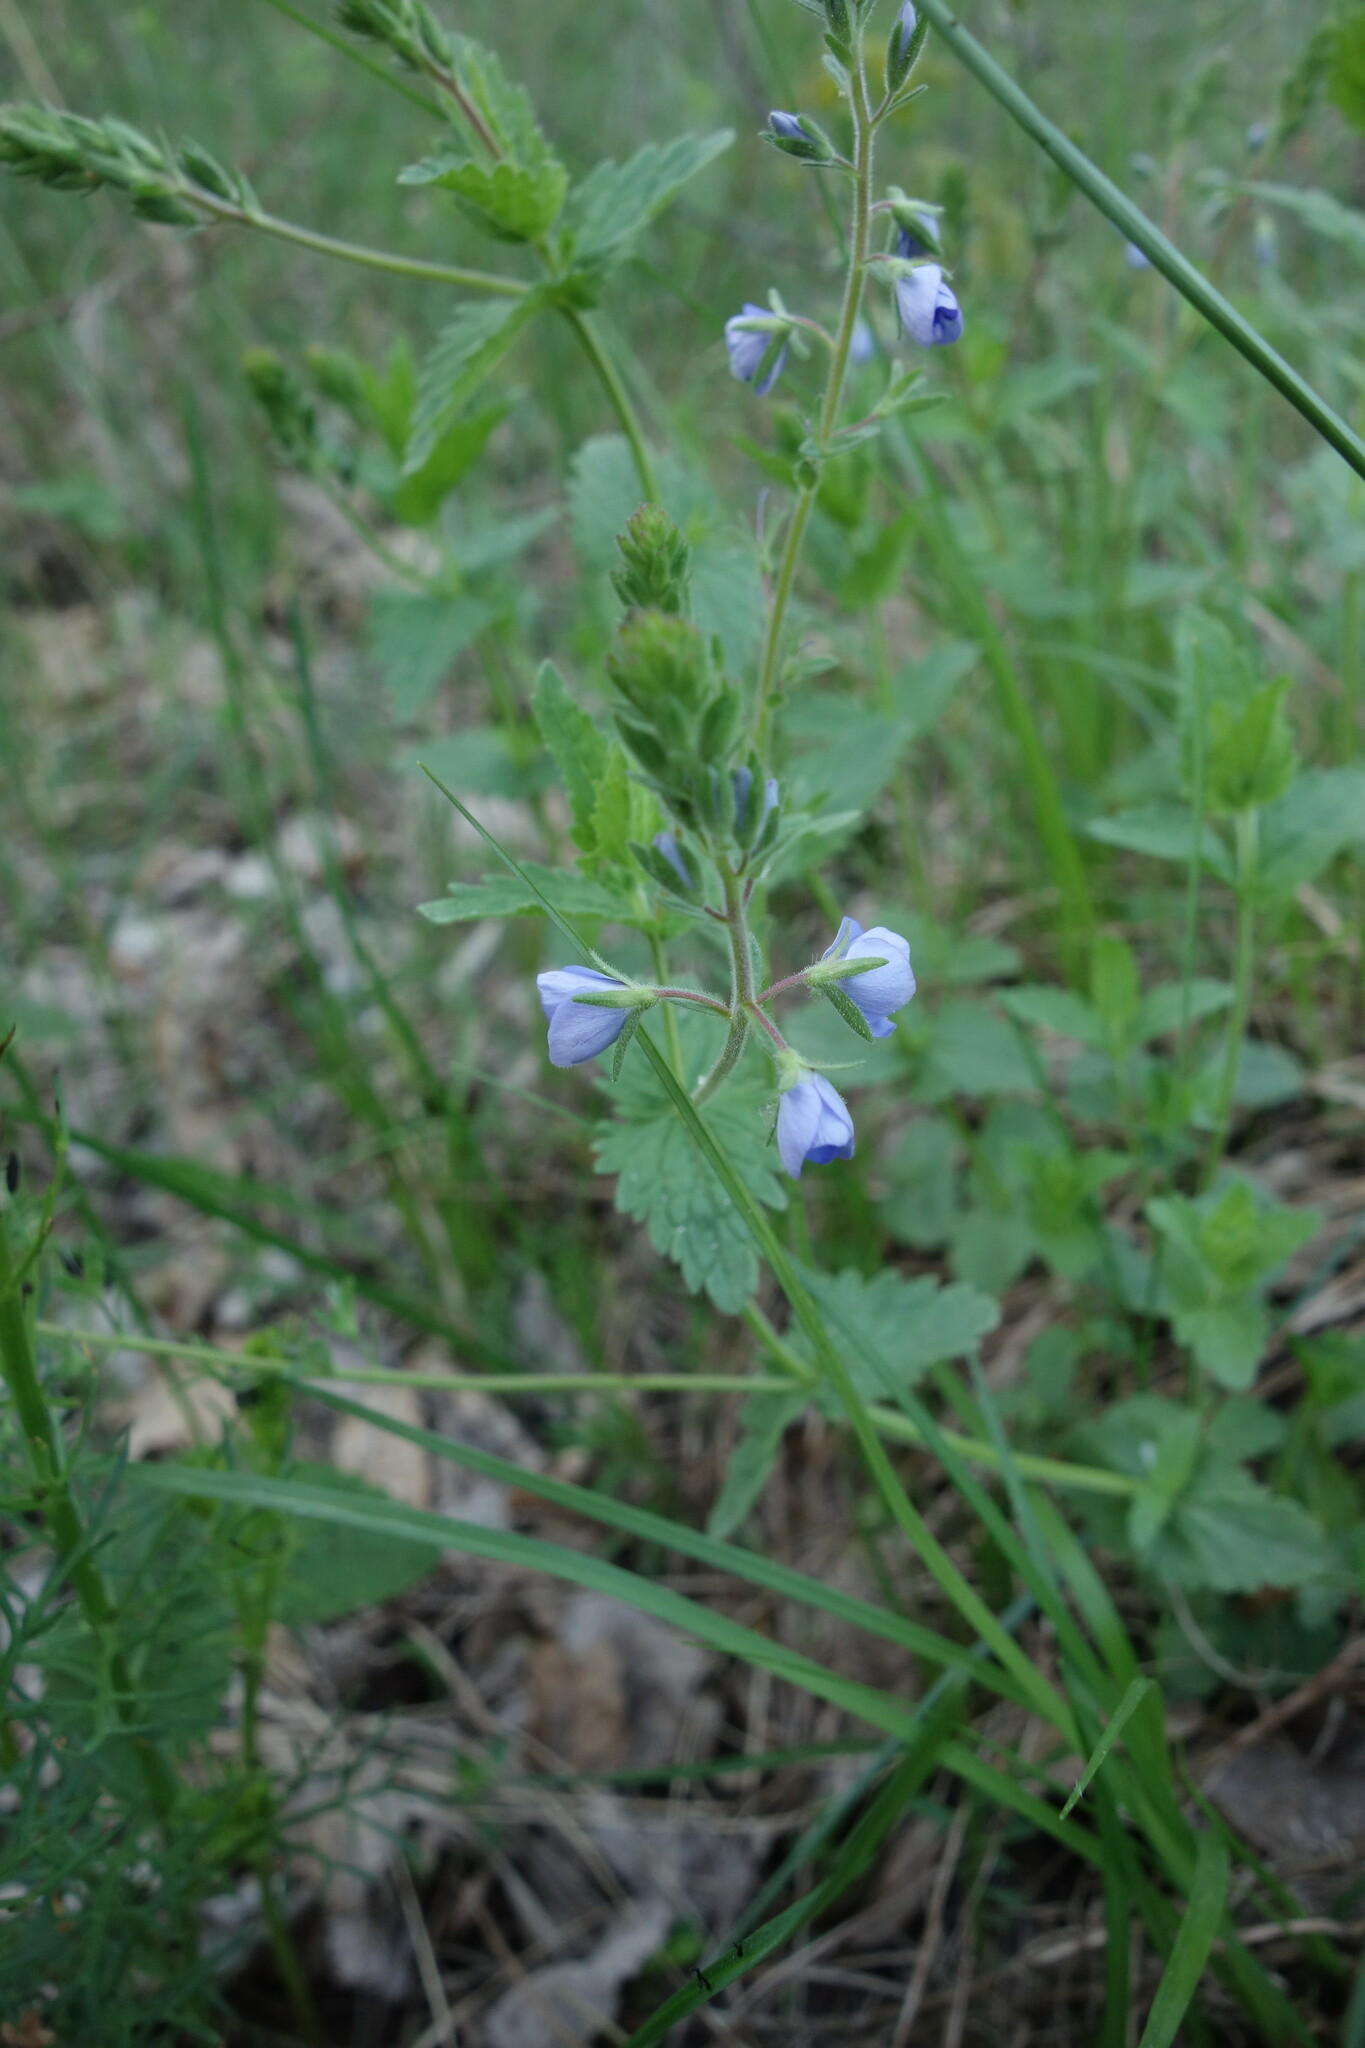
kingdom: Plantae
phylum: Tracheophyta
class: Magnoliopsida
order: Lamiales
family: Plantaginaceae
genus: Veronica
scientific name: Veronica chamaedrys
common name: Germander speedwell
